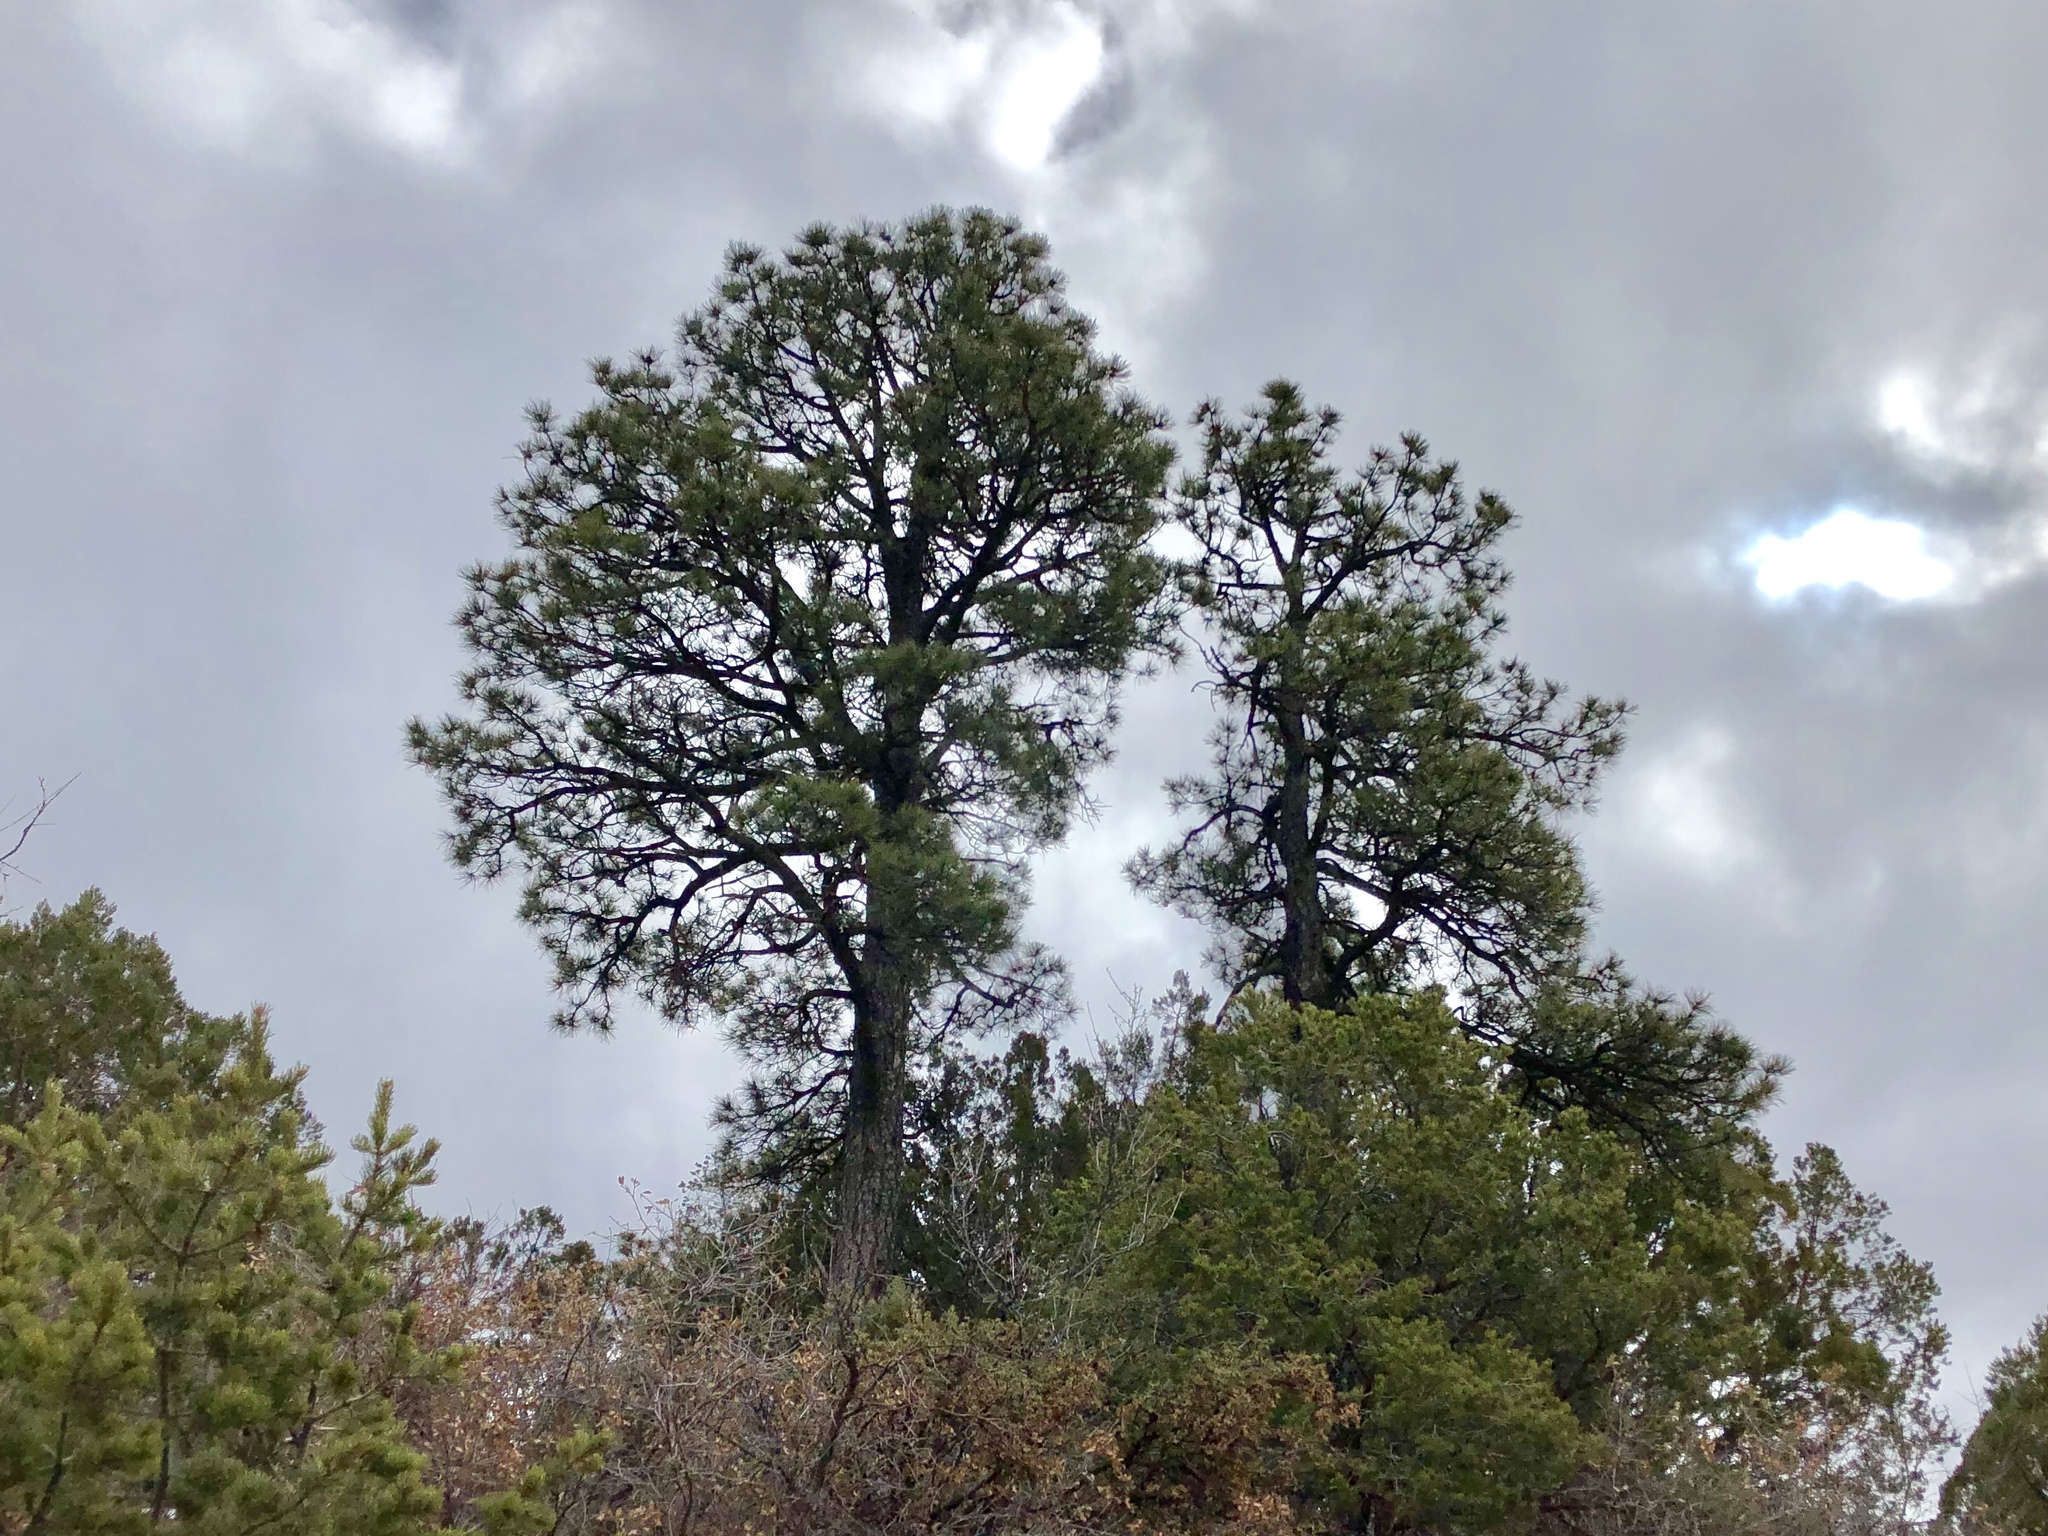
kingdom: Plantae
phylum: Tracheophyta
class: Pinopsida
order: Pinales
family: Pinaceae
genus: Pinus
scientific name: Pinus ponderosa
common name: Western yellow-pine
